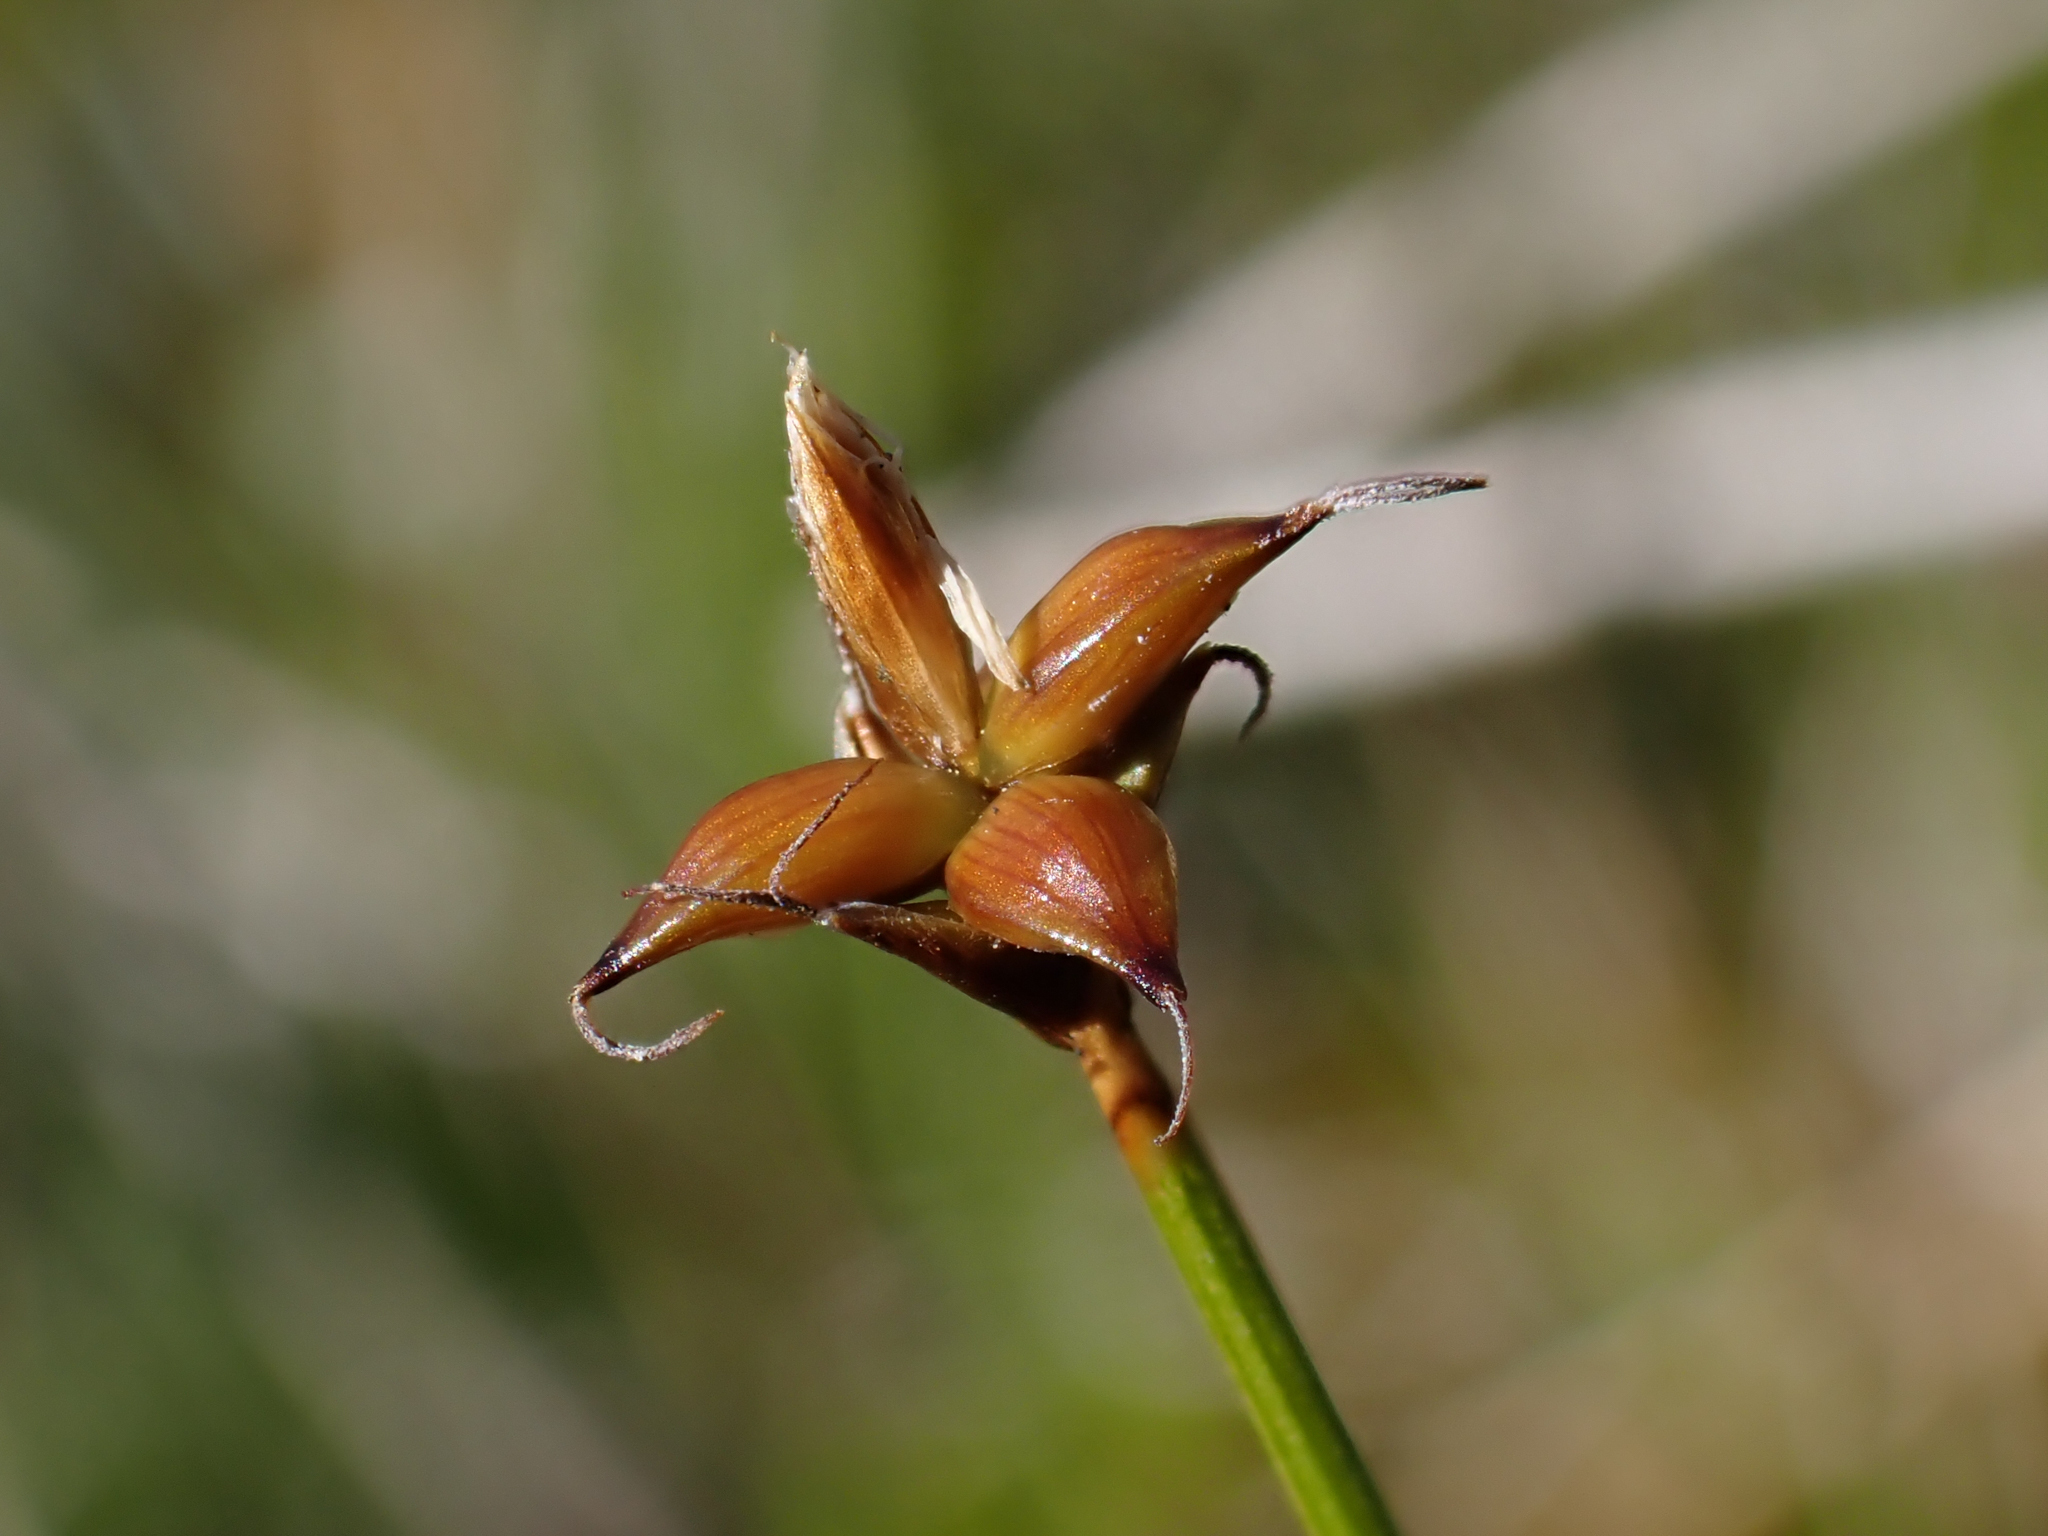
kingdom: Plantae
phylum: Tracheophyta
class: Liliopsida
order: Poales
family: Cyperaceae
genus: Carex
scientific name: Carex alascana
